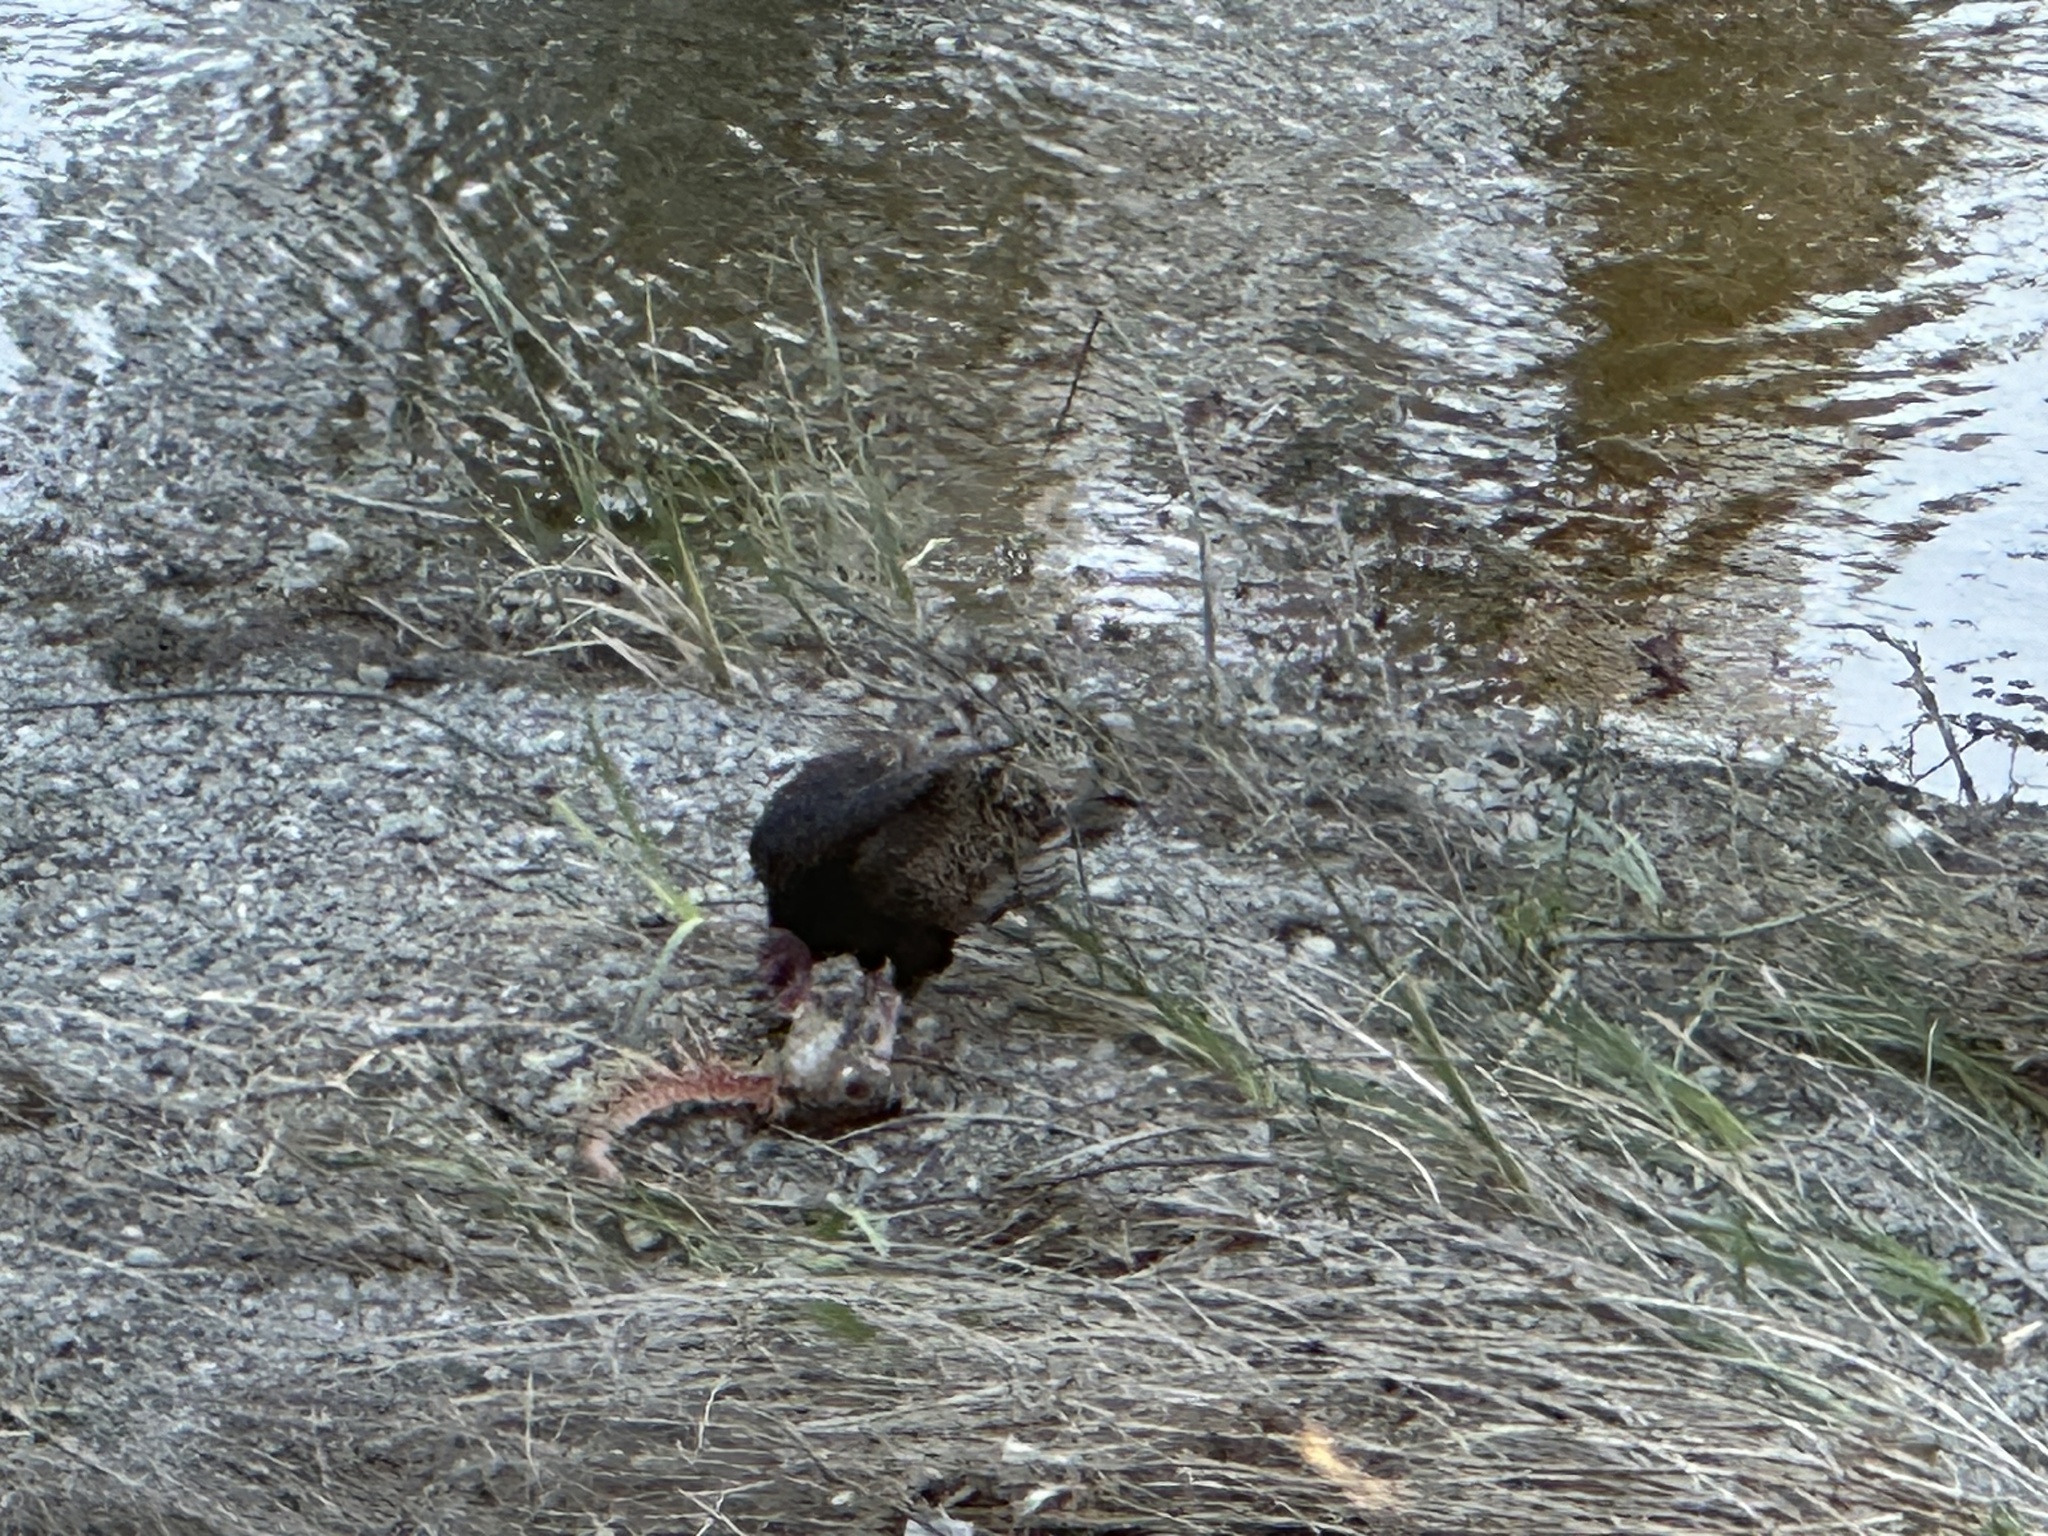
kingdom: Animalia
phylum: Chordata
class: Aves
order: Accipitriformes
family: Cathartidae
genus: Cathartes
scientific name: Cathartes aura
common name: Turkey vulture
